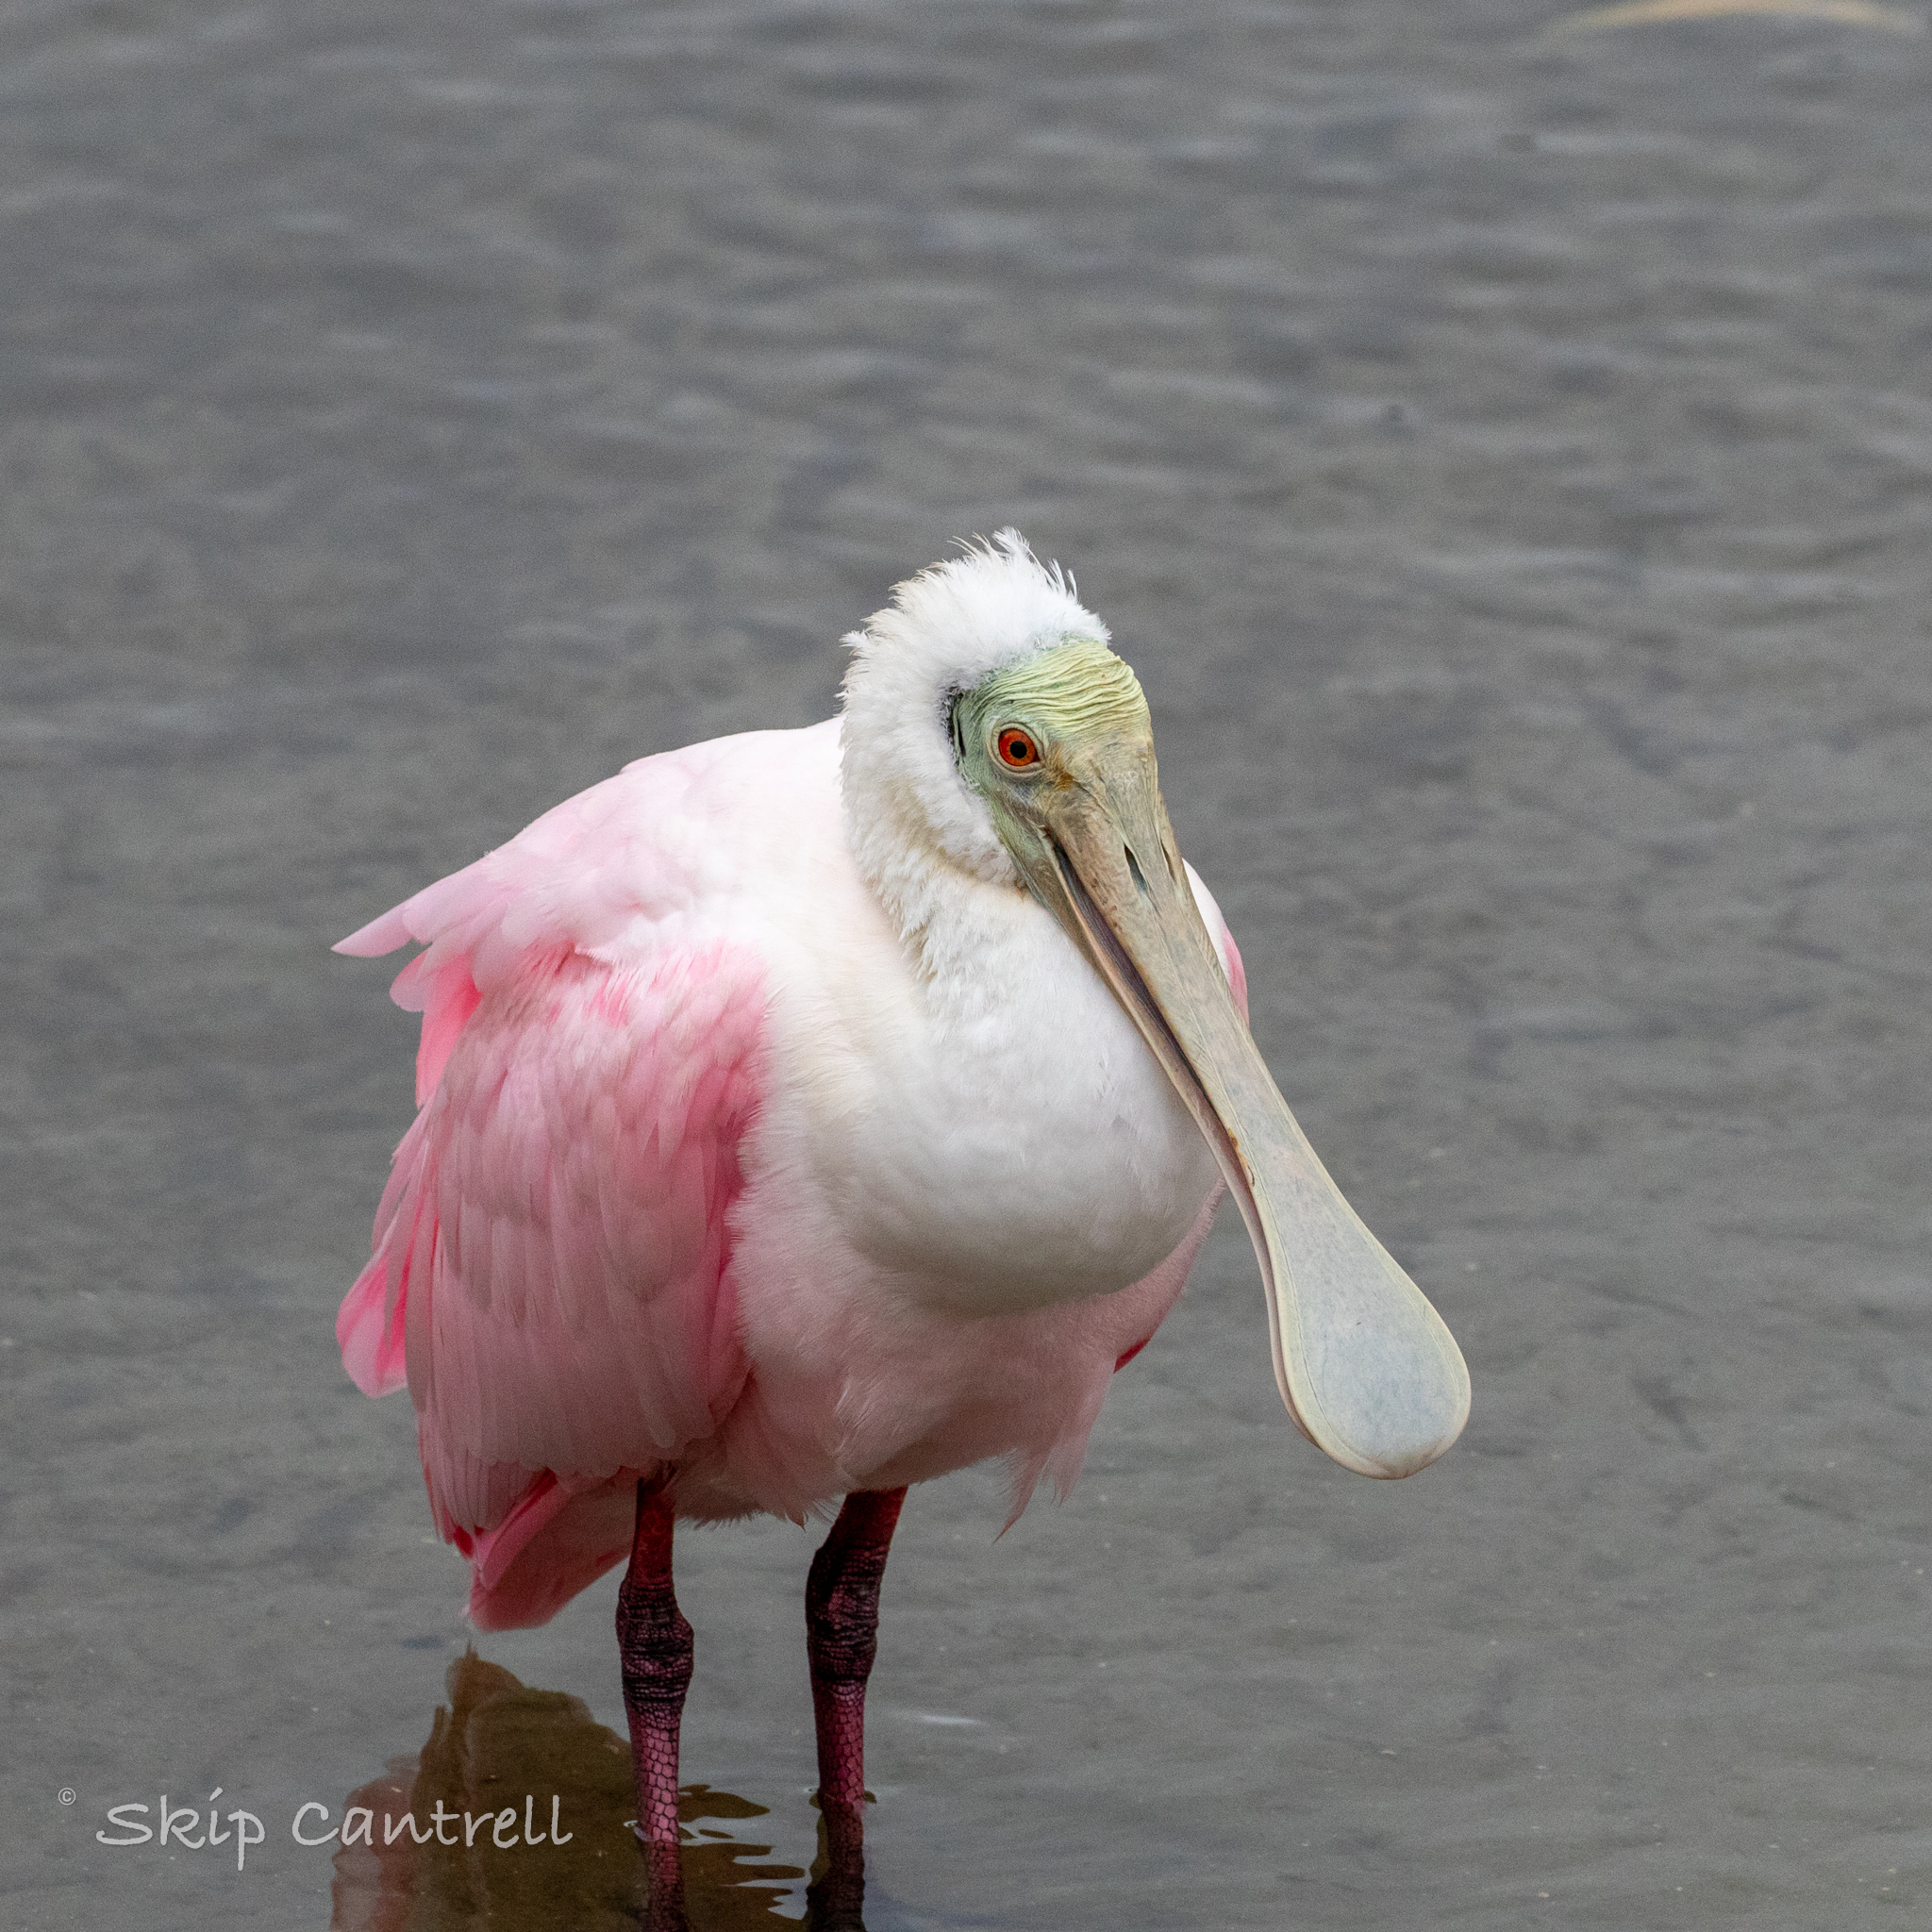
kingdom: Animalia
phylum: Chordata
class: Aves
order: Pelecaniformes
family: Threskiornithidae
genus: Platalea
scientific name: Platalea ajaja
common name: Roseate spoonbill
